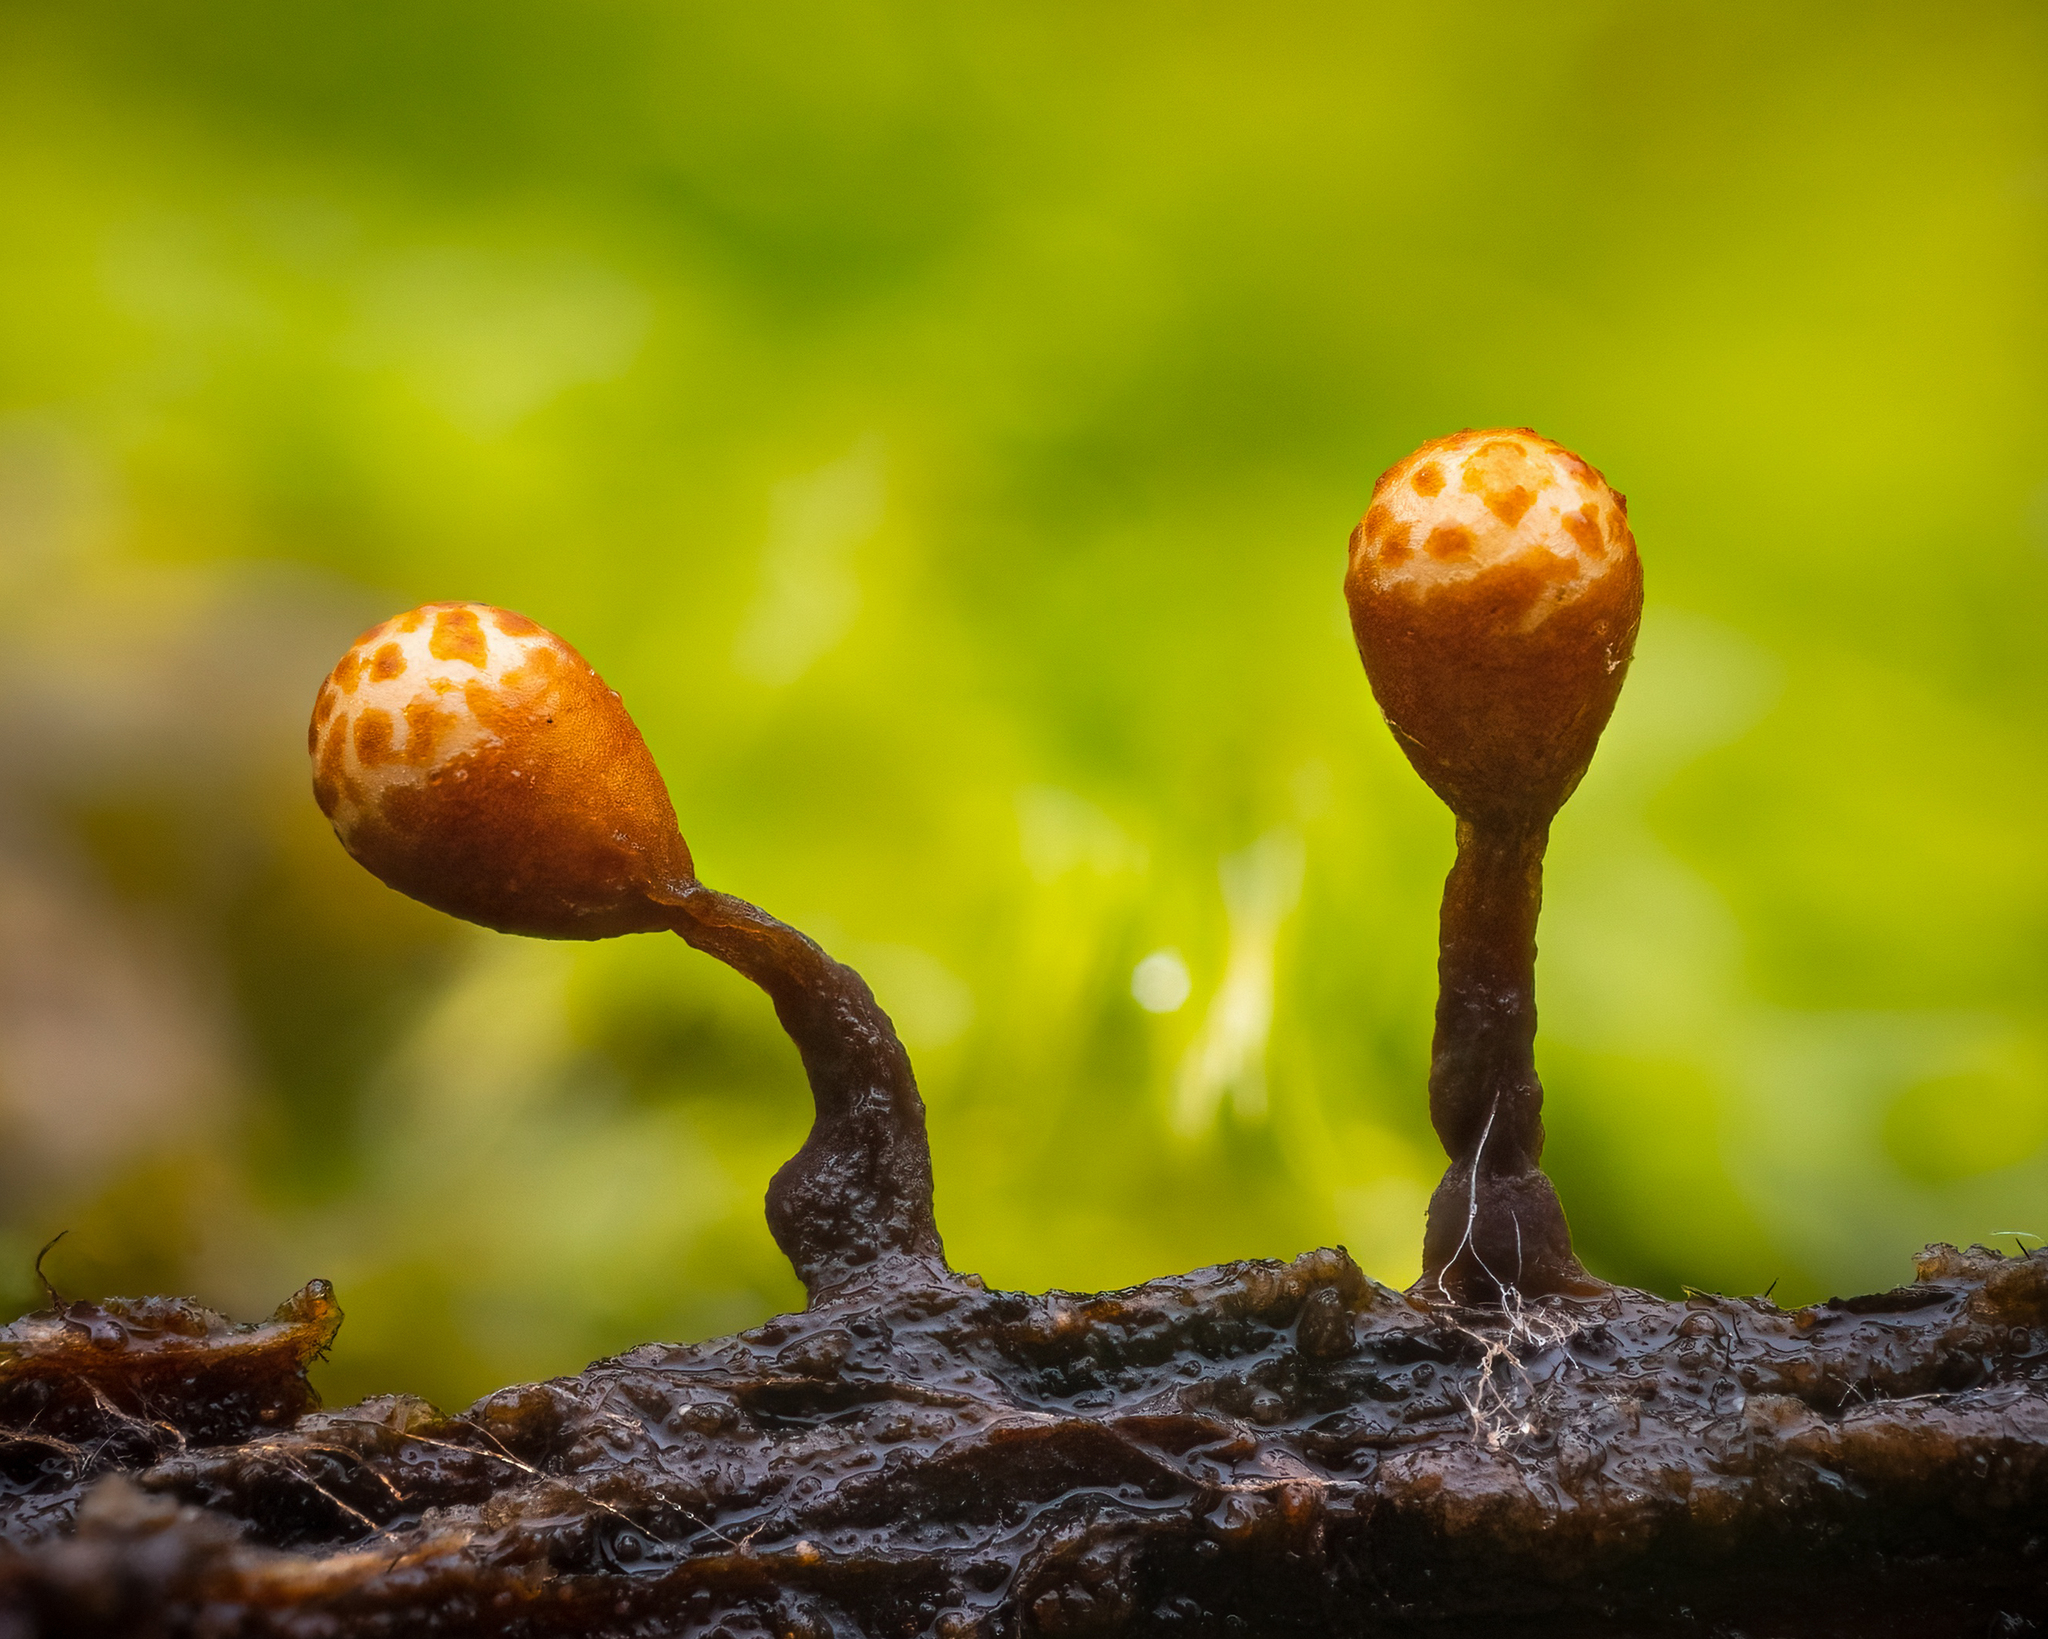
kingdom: Protozoa
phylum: Mycetozoa
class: Myxomycetes
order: Trichiales
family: Trichiaceae
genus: Trichia
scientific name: Trichia ambigua
